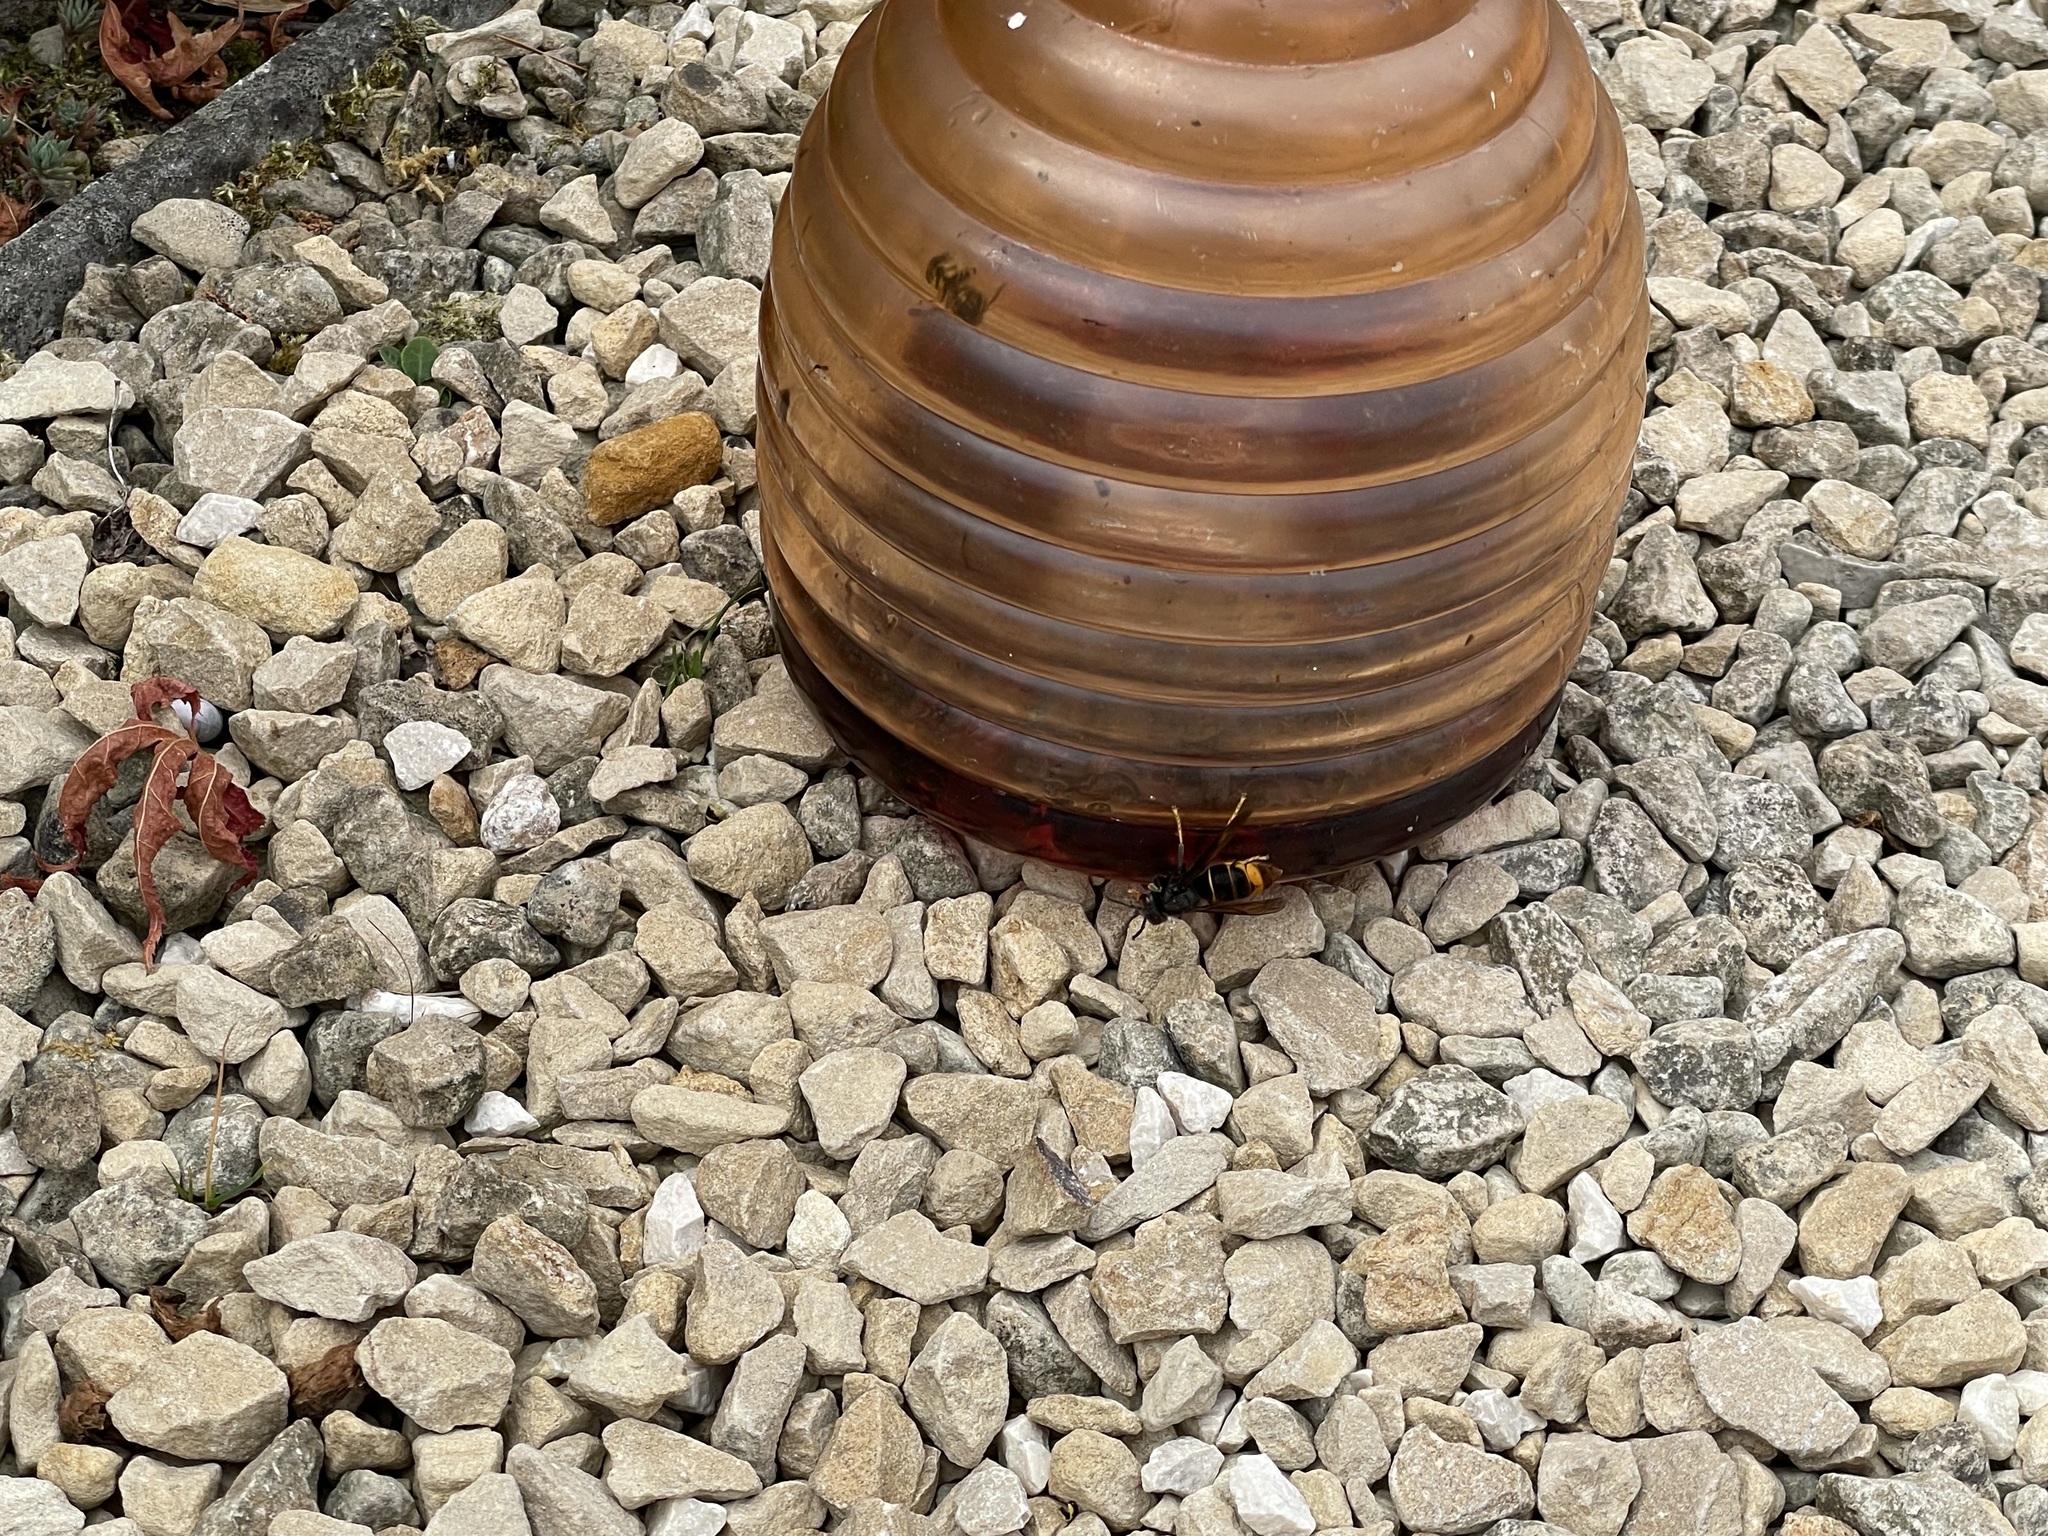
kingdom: Animalia
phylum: Arthropoda
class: Insecta
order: Hymenoptera
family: Vespidae
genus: Vespa
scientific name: Vespa velutina
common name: Asian hornet
